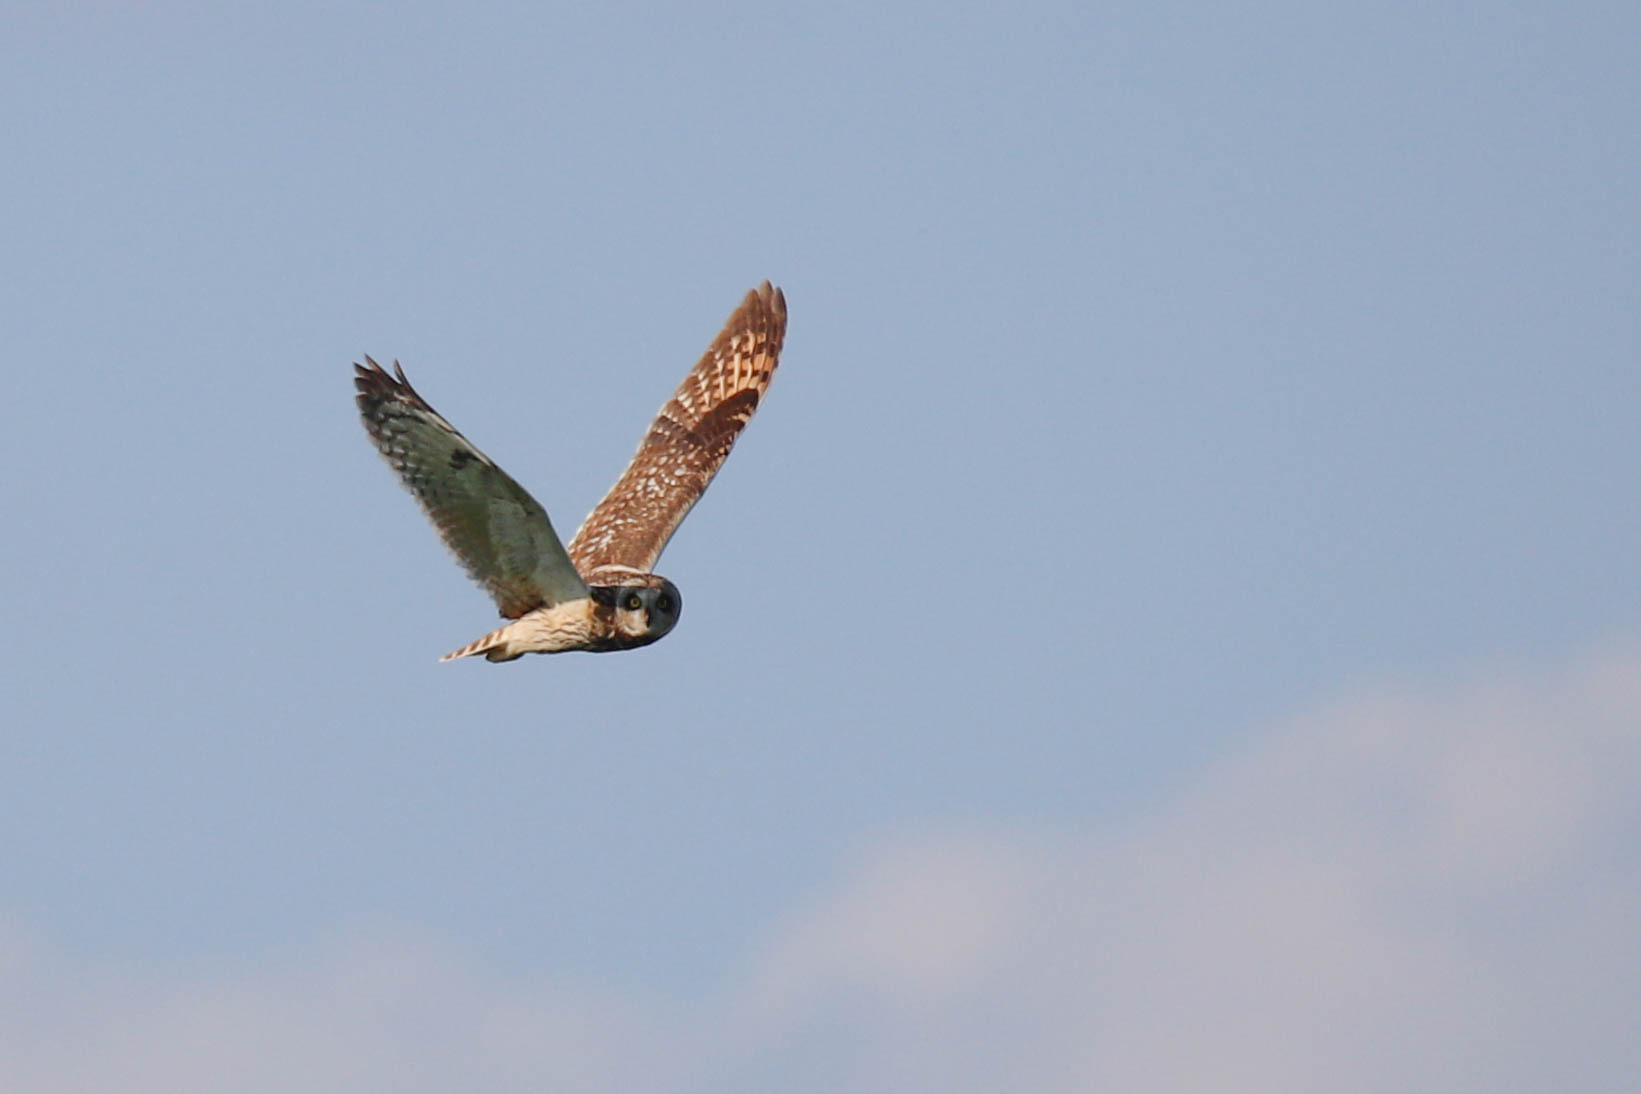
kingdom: Animalia
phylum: Chordata
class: Aves
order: Strigiformes
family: Strigidae
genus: Asio
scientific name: Asio flammeus
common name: Short-eared owl
